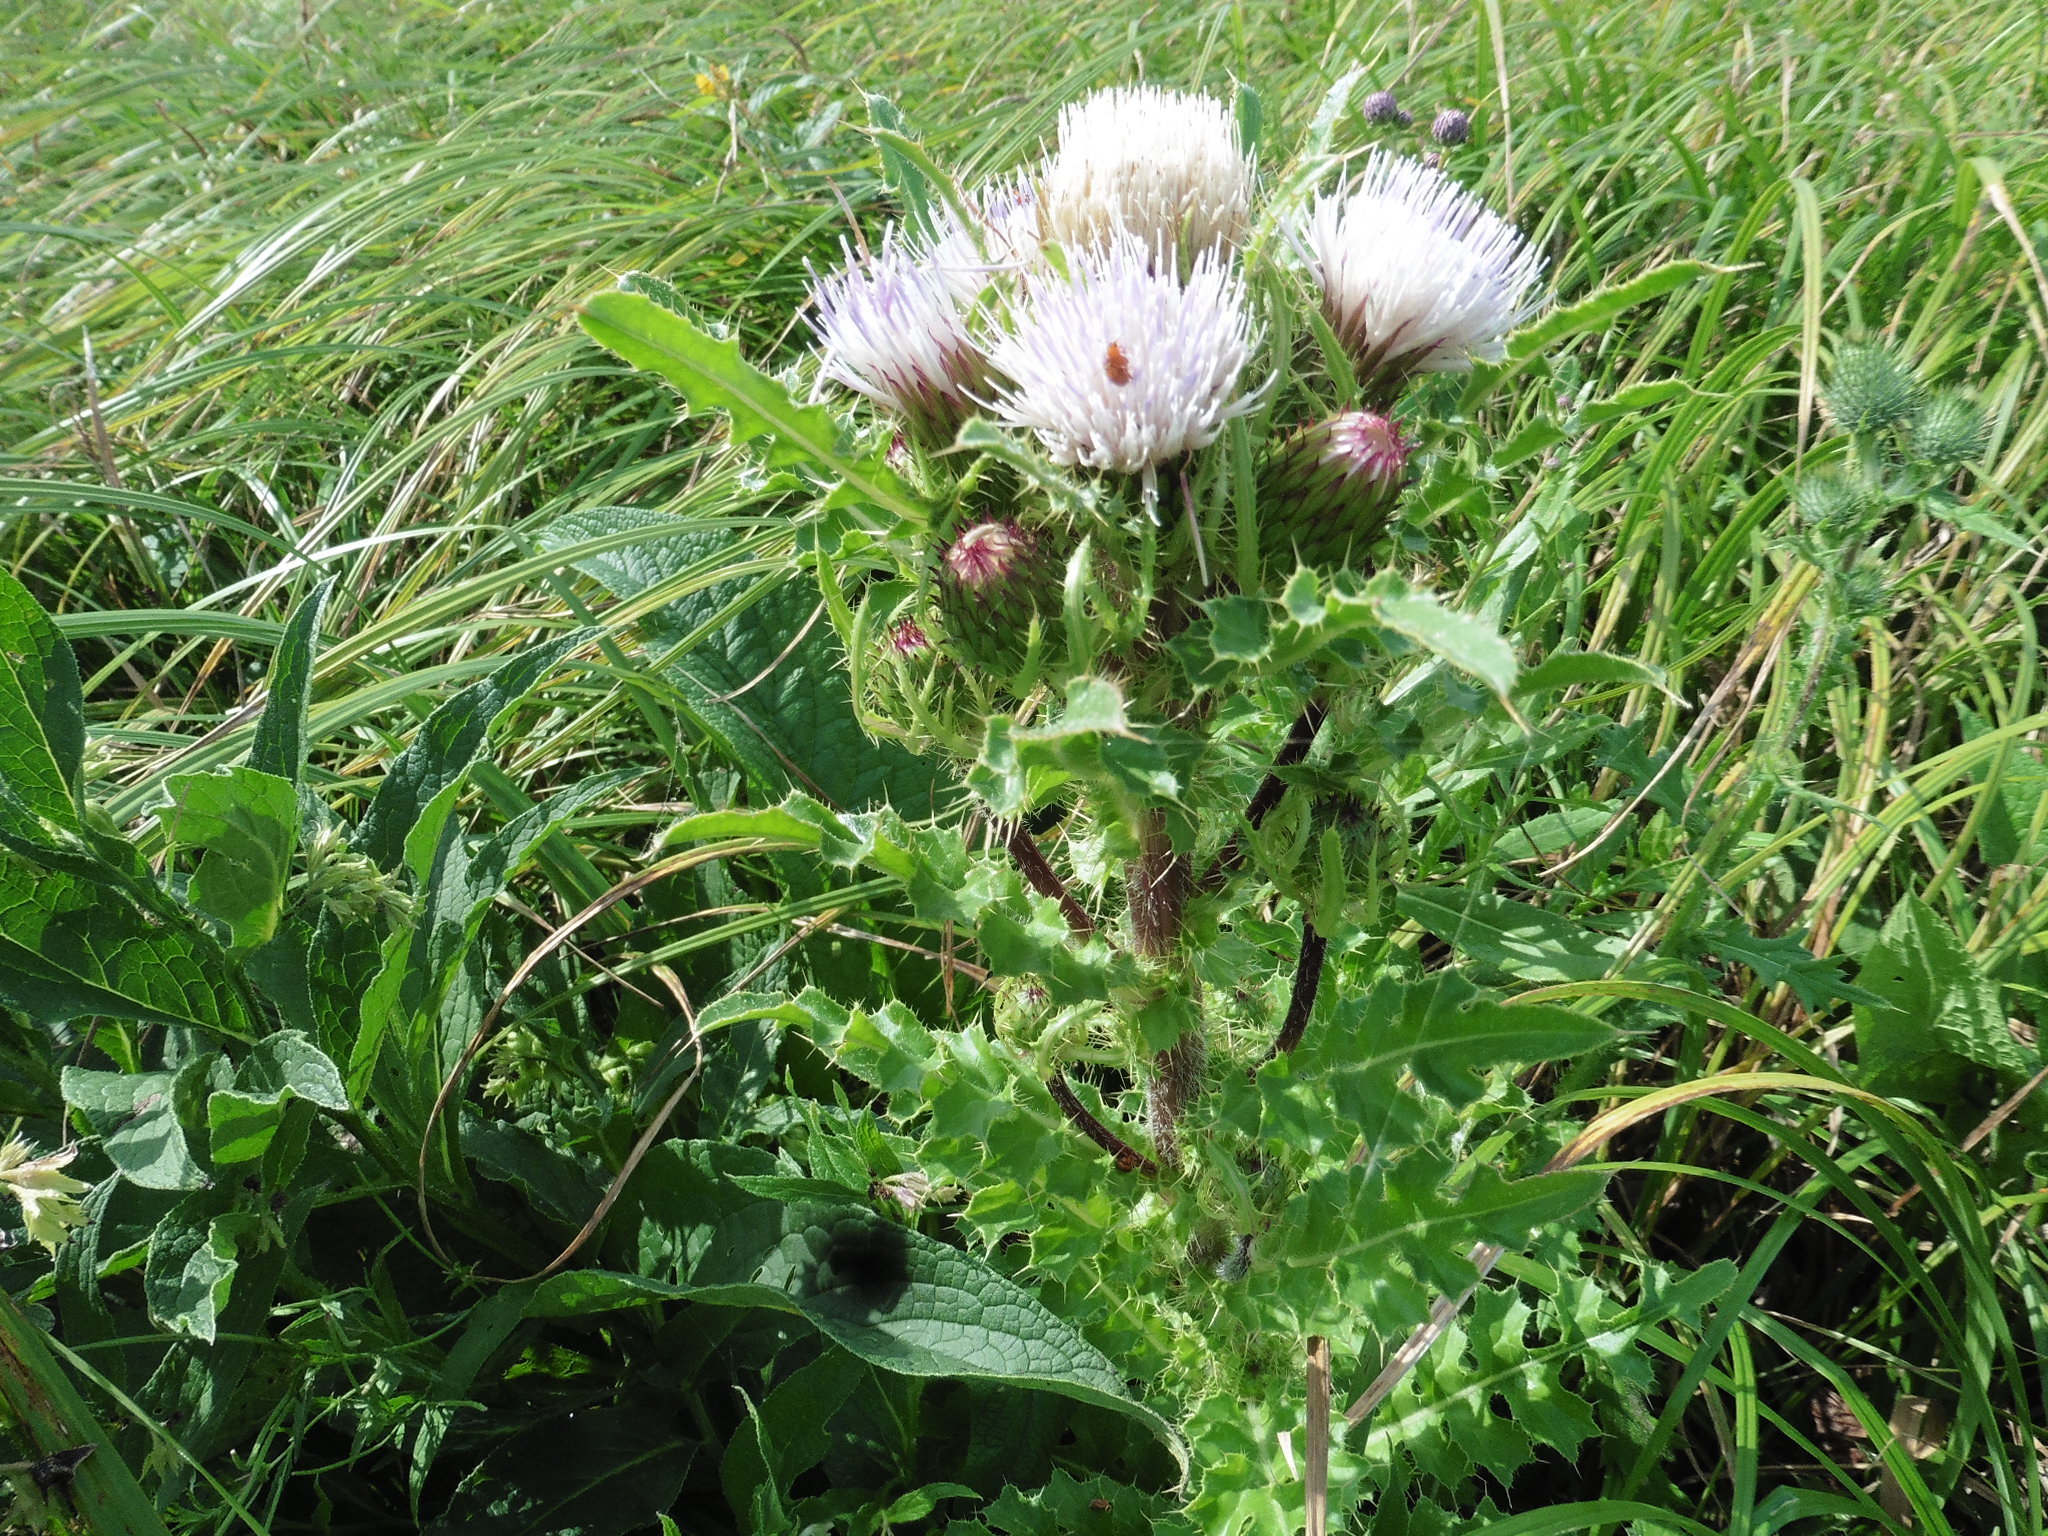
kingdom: Plantae
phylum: Tracheophyta
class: Magnoliopsida
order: Asterales
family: Asteraceae
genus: Cirsium
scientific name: Cirsium esculentum
